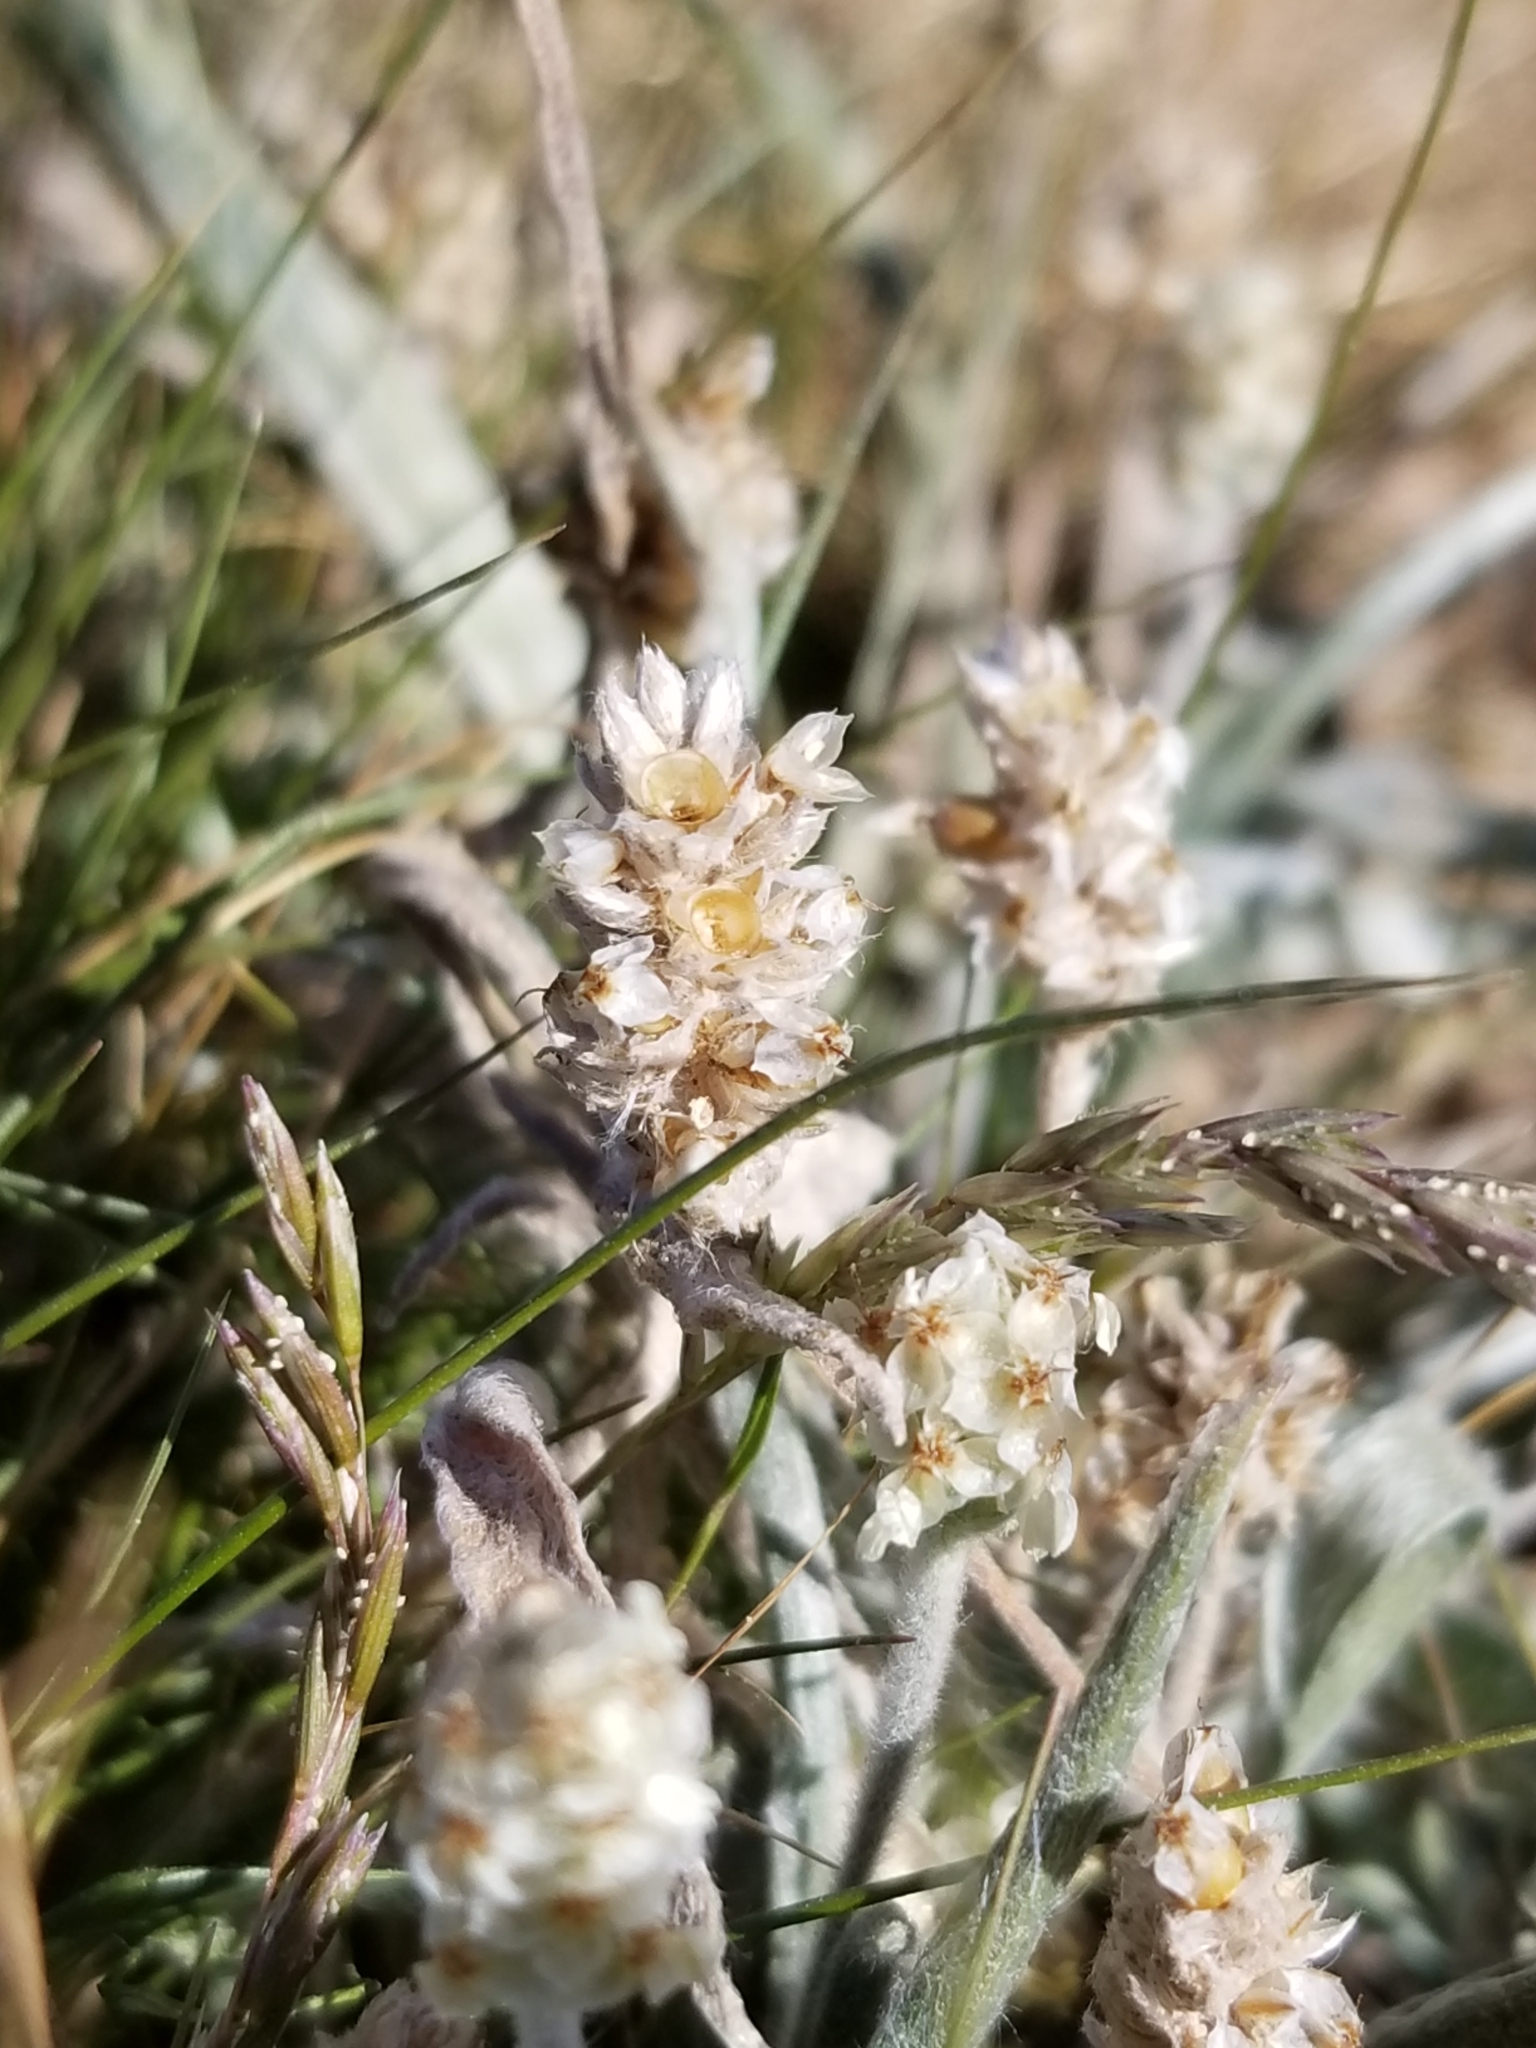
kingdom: Plantae
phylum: Tracheophyta
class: Magnoliopsida
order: Lamiales
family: Plantaginaceae
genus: Plantago
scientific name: Plantago ovata
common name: Blond plantain
